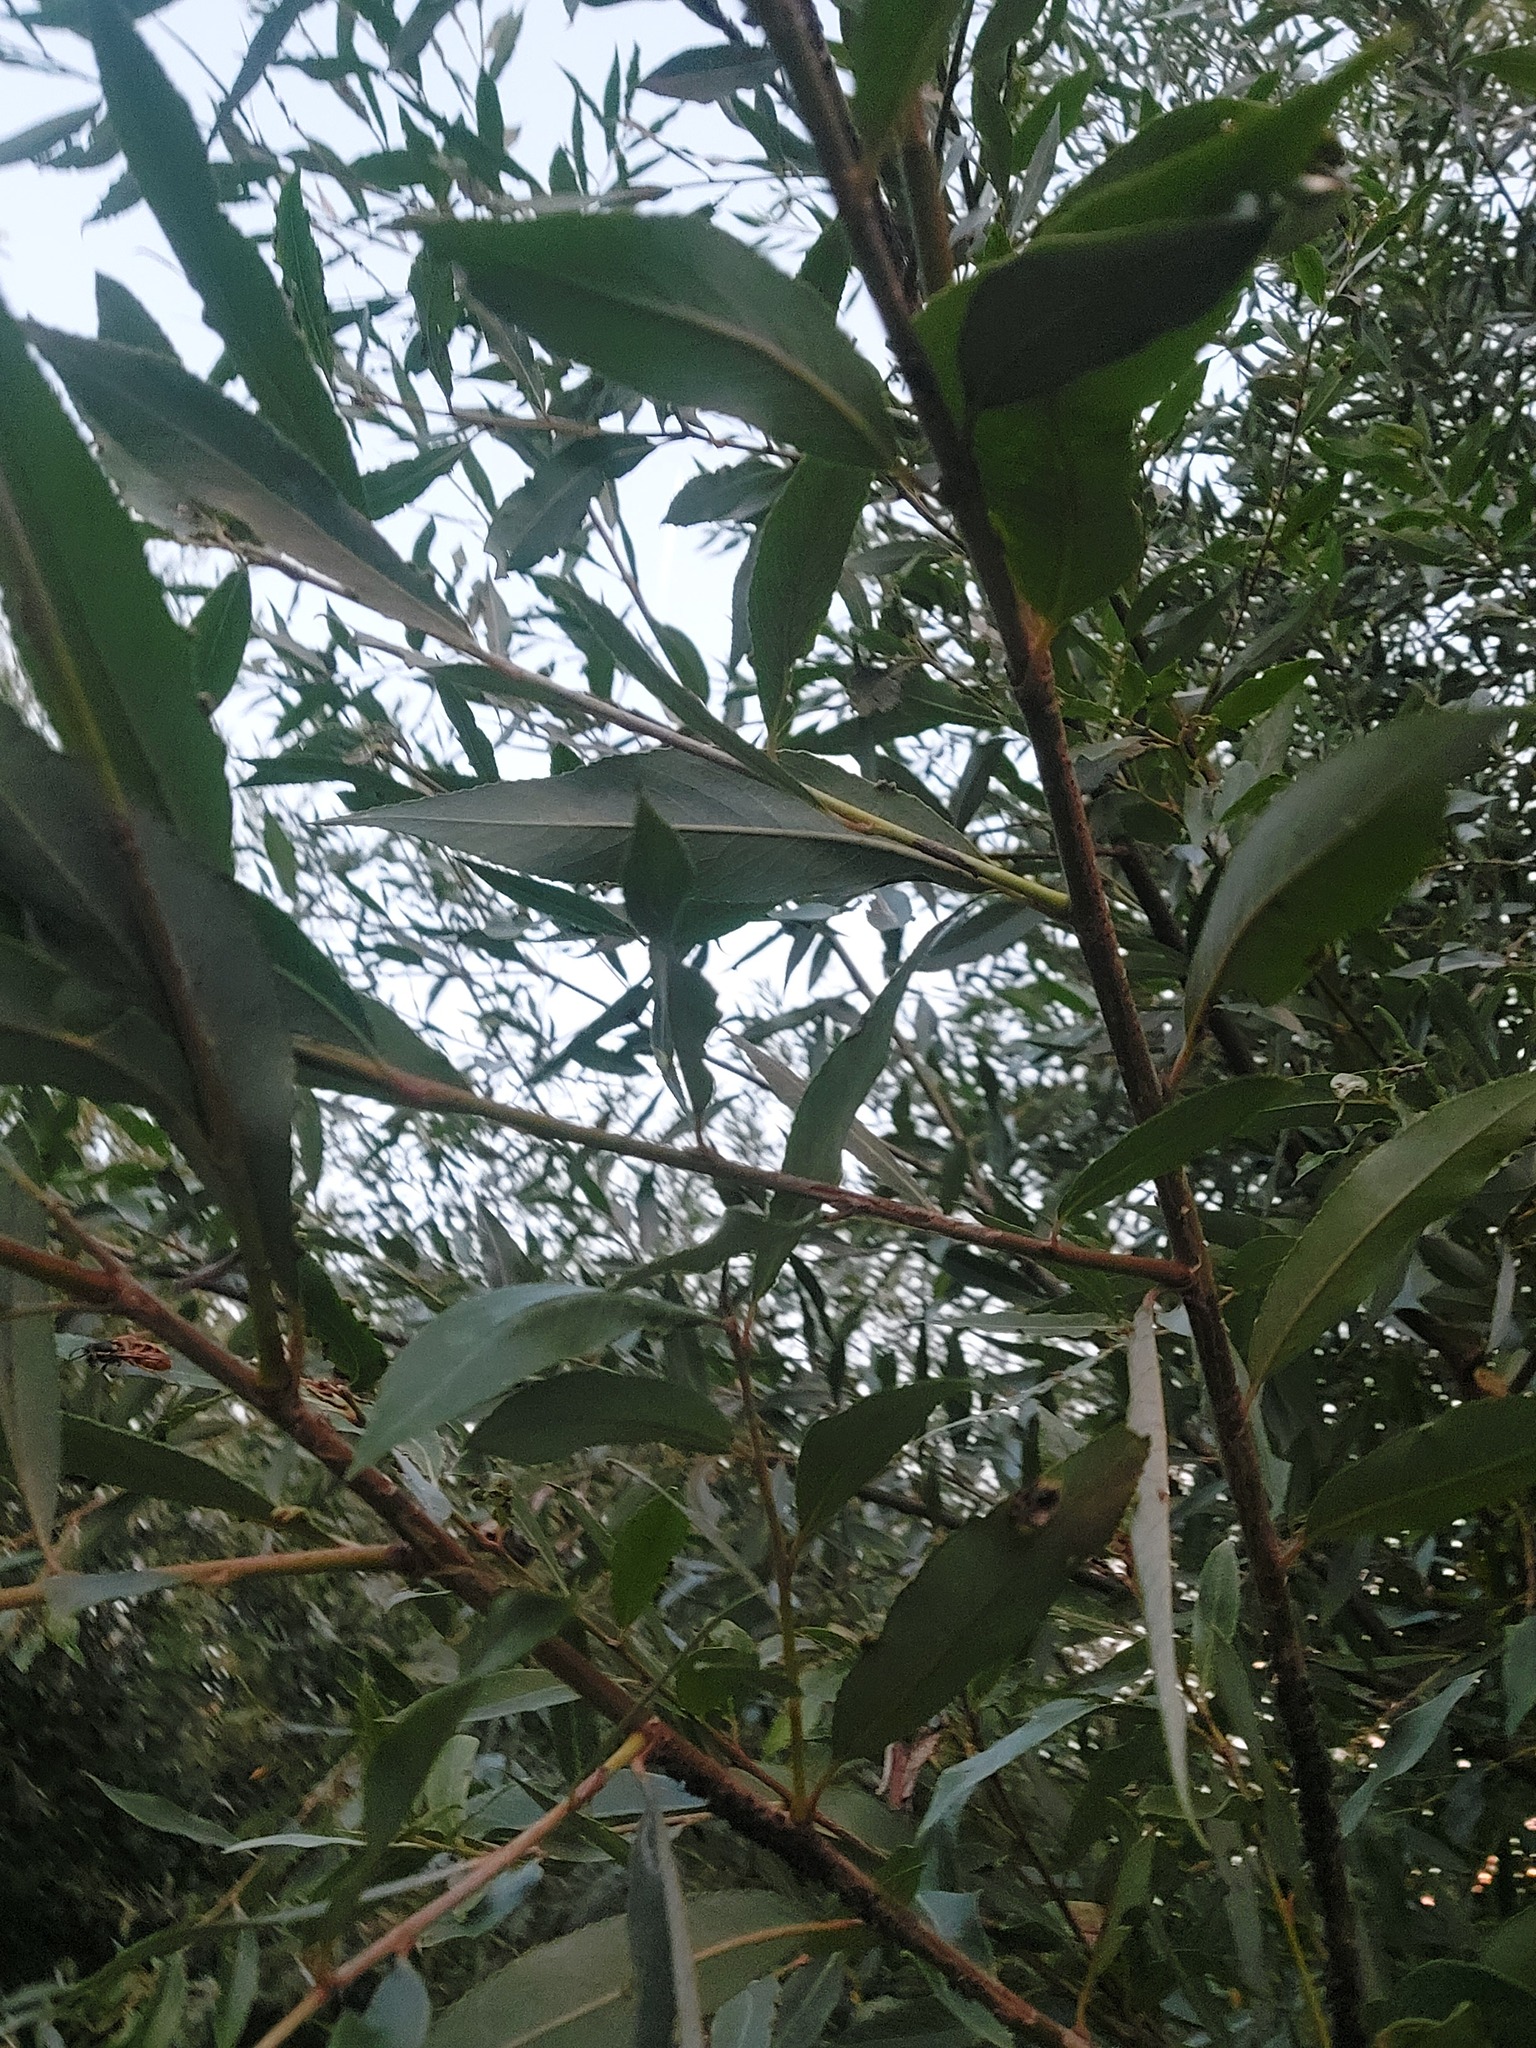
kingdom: Animalia
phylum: Arthropoda
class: Insecta
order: Hymenoptera
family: Vespidae
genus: Vespa
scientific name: Vespa velutina
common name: Asian hornet
